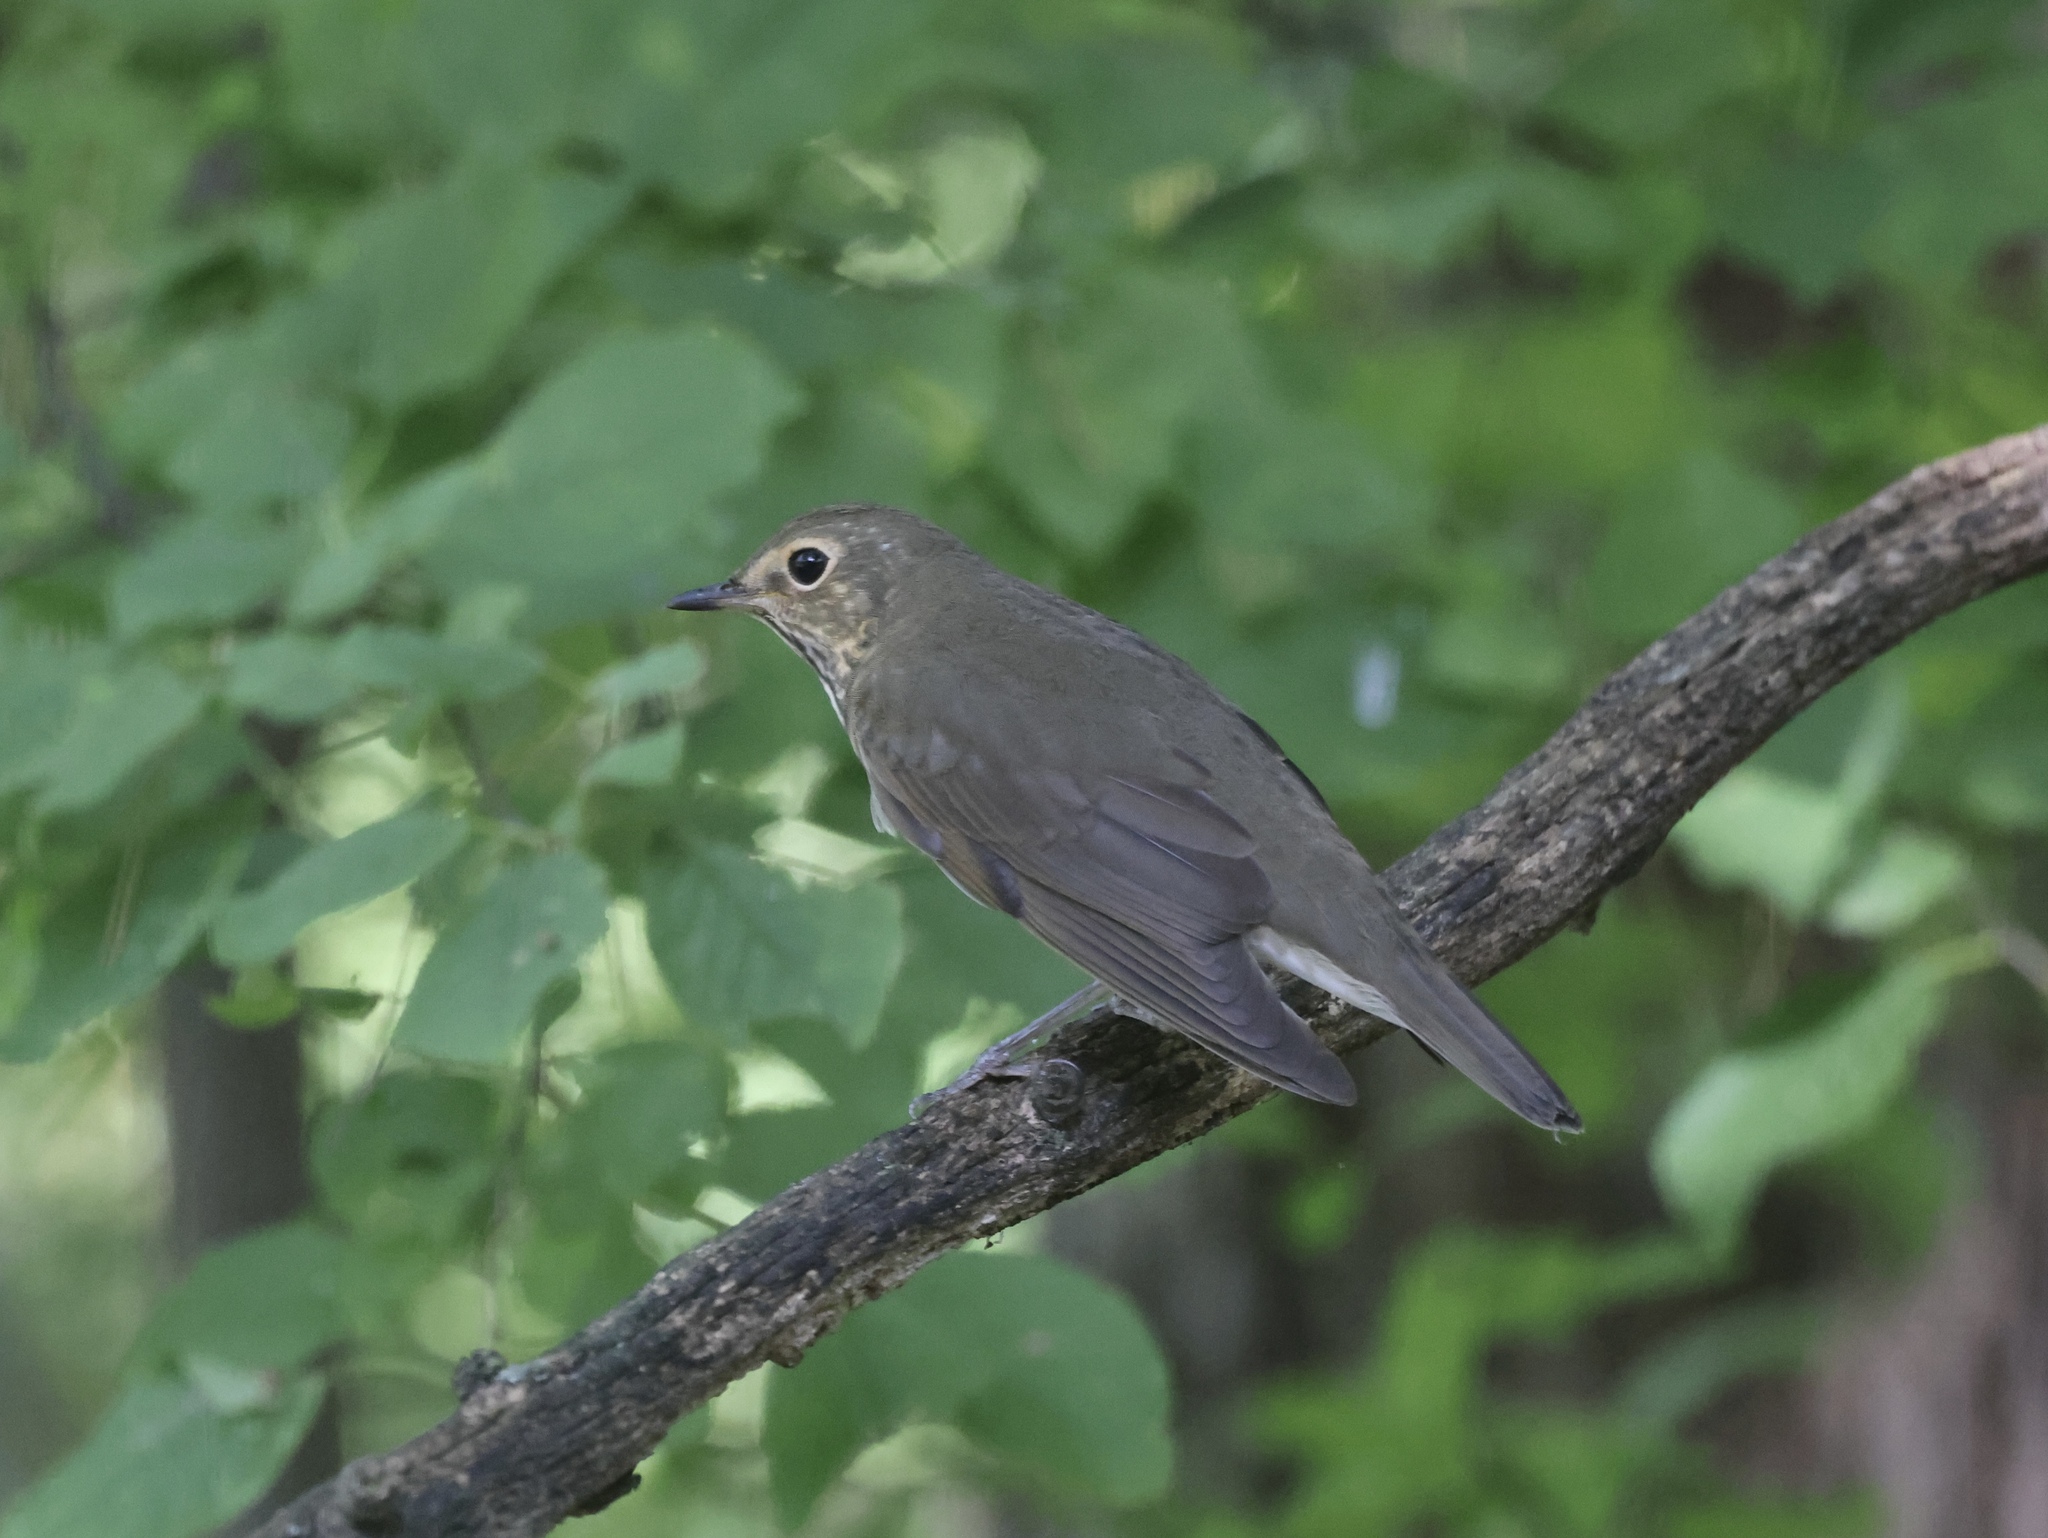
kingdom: Animalia
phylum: Chordata
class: Aves
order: Passeriformes
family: Turdidae
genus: Catharus
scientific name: Catharus ustulatus
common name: Swainson's thrush
